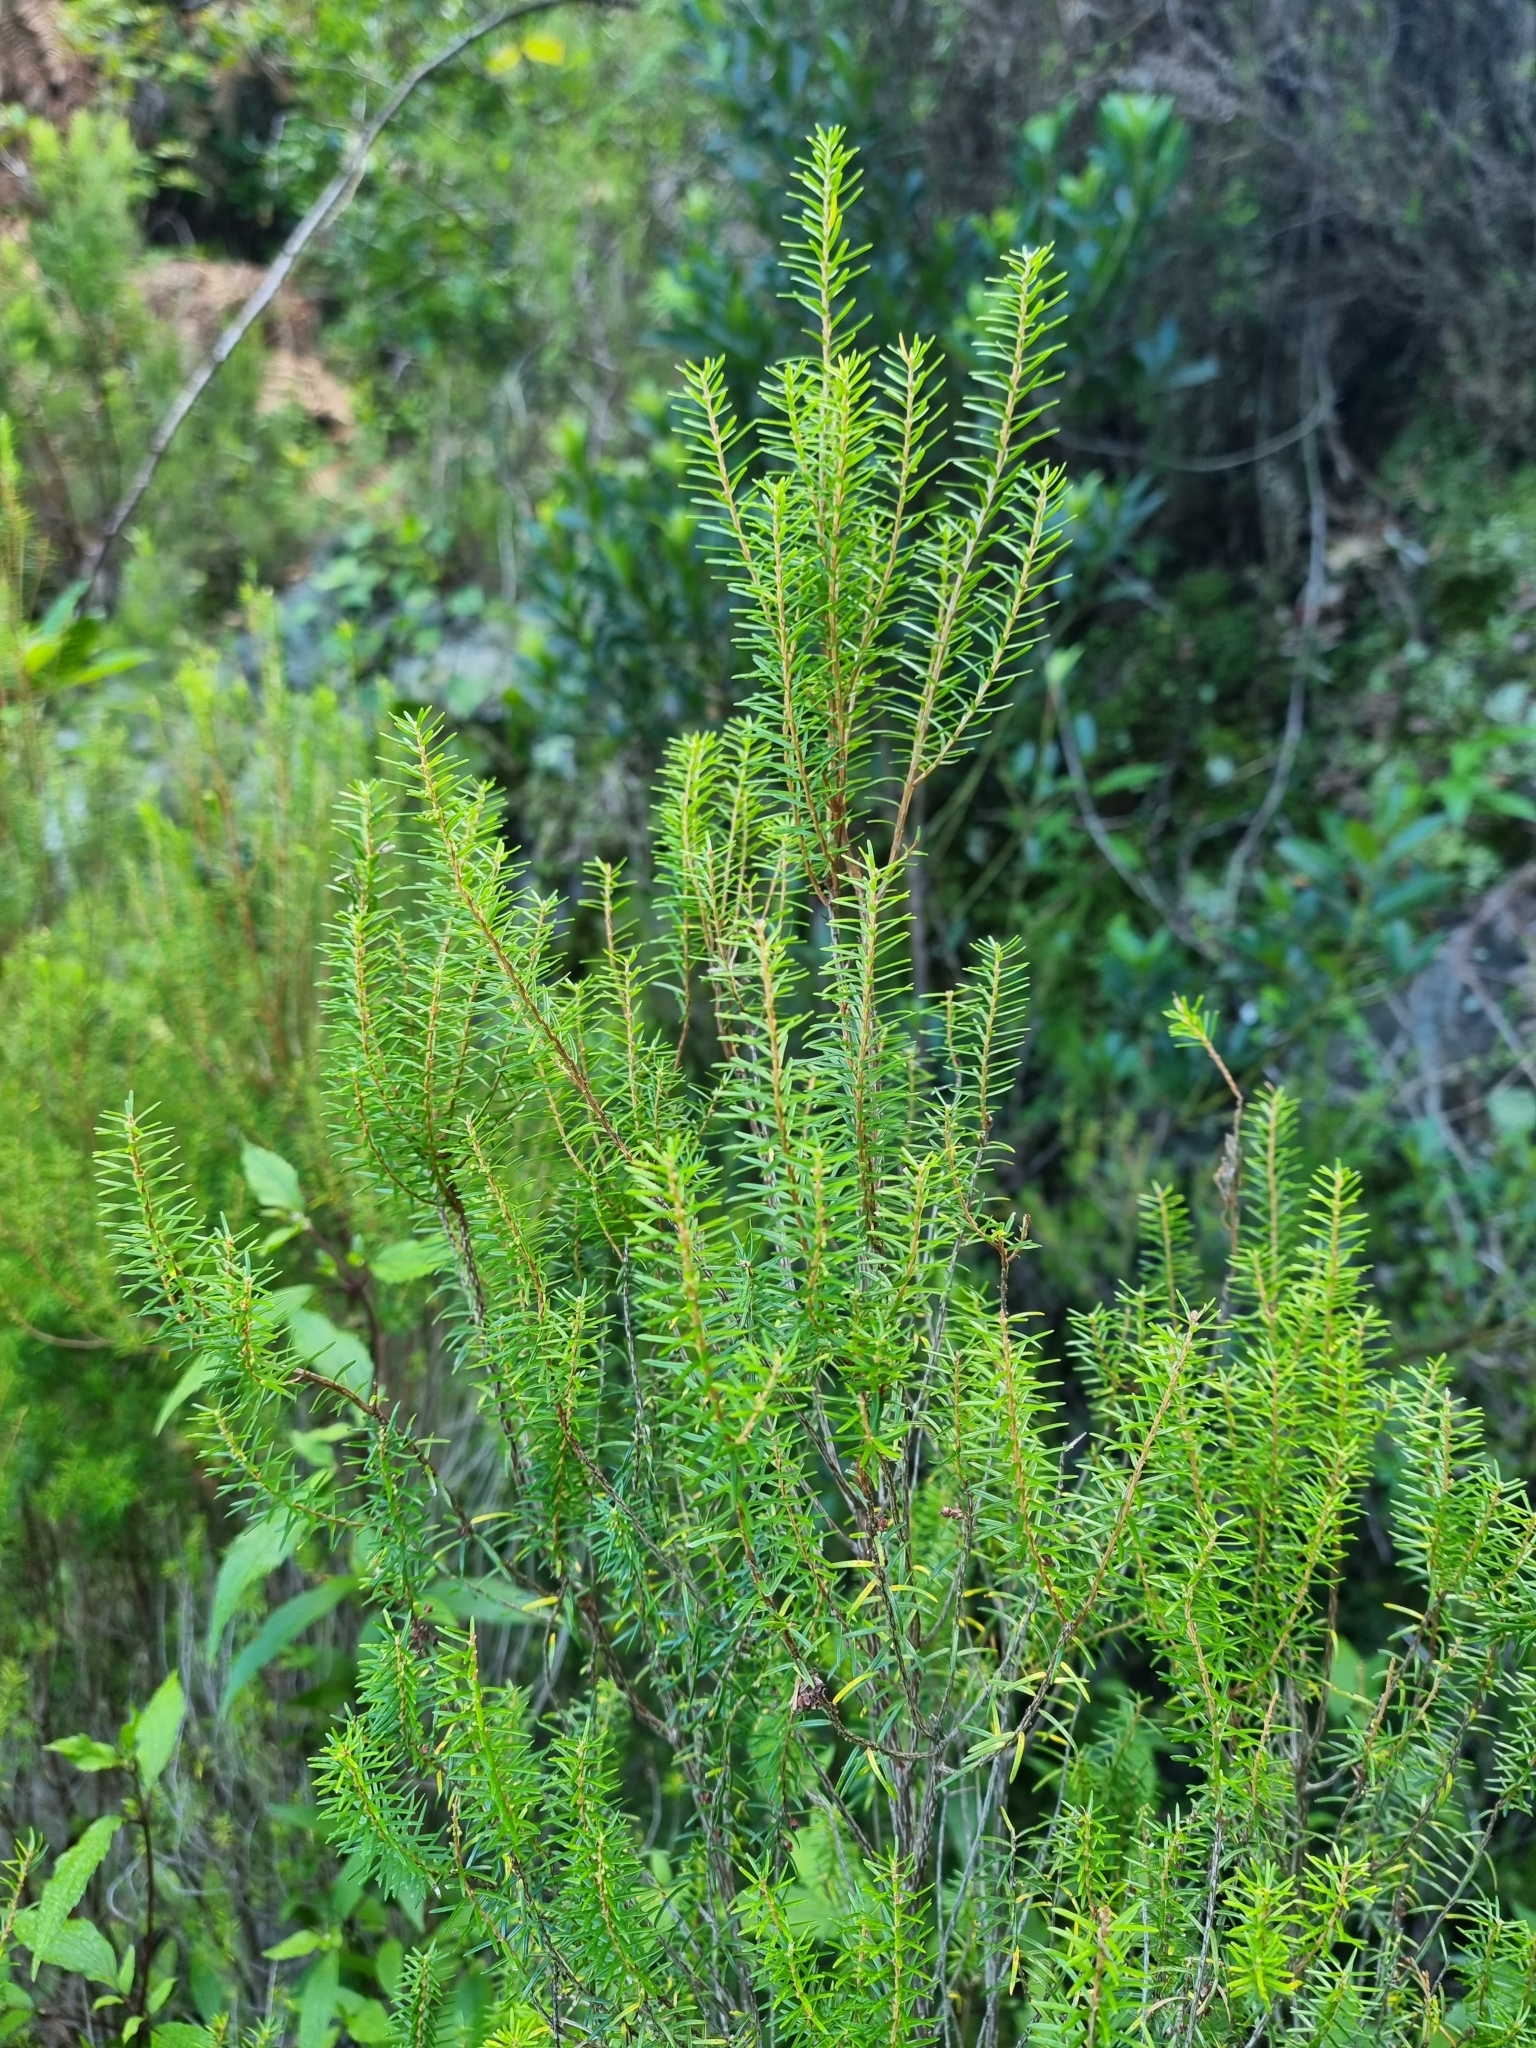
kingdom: Plantae
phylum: Tracheophyta
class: Magnoliopsida
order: Ericales
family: Ericaceae
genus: Erica
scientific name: Erica platycodon
